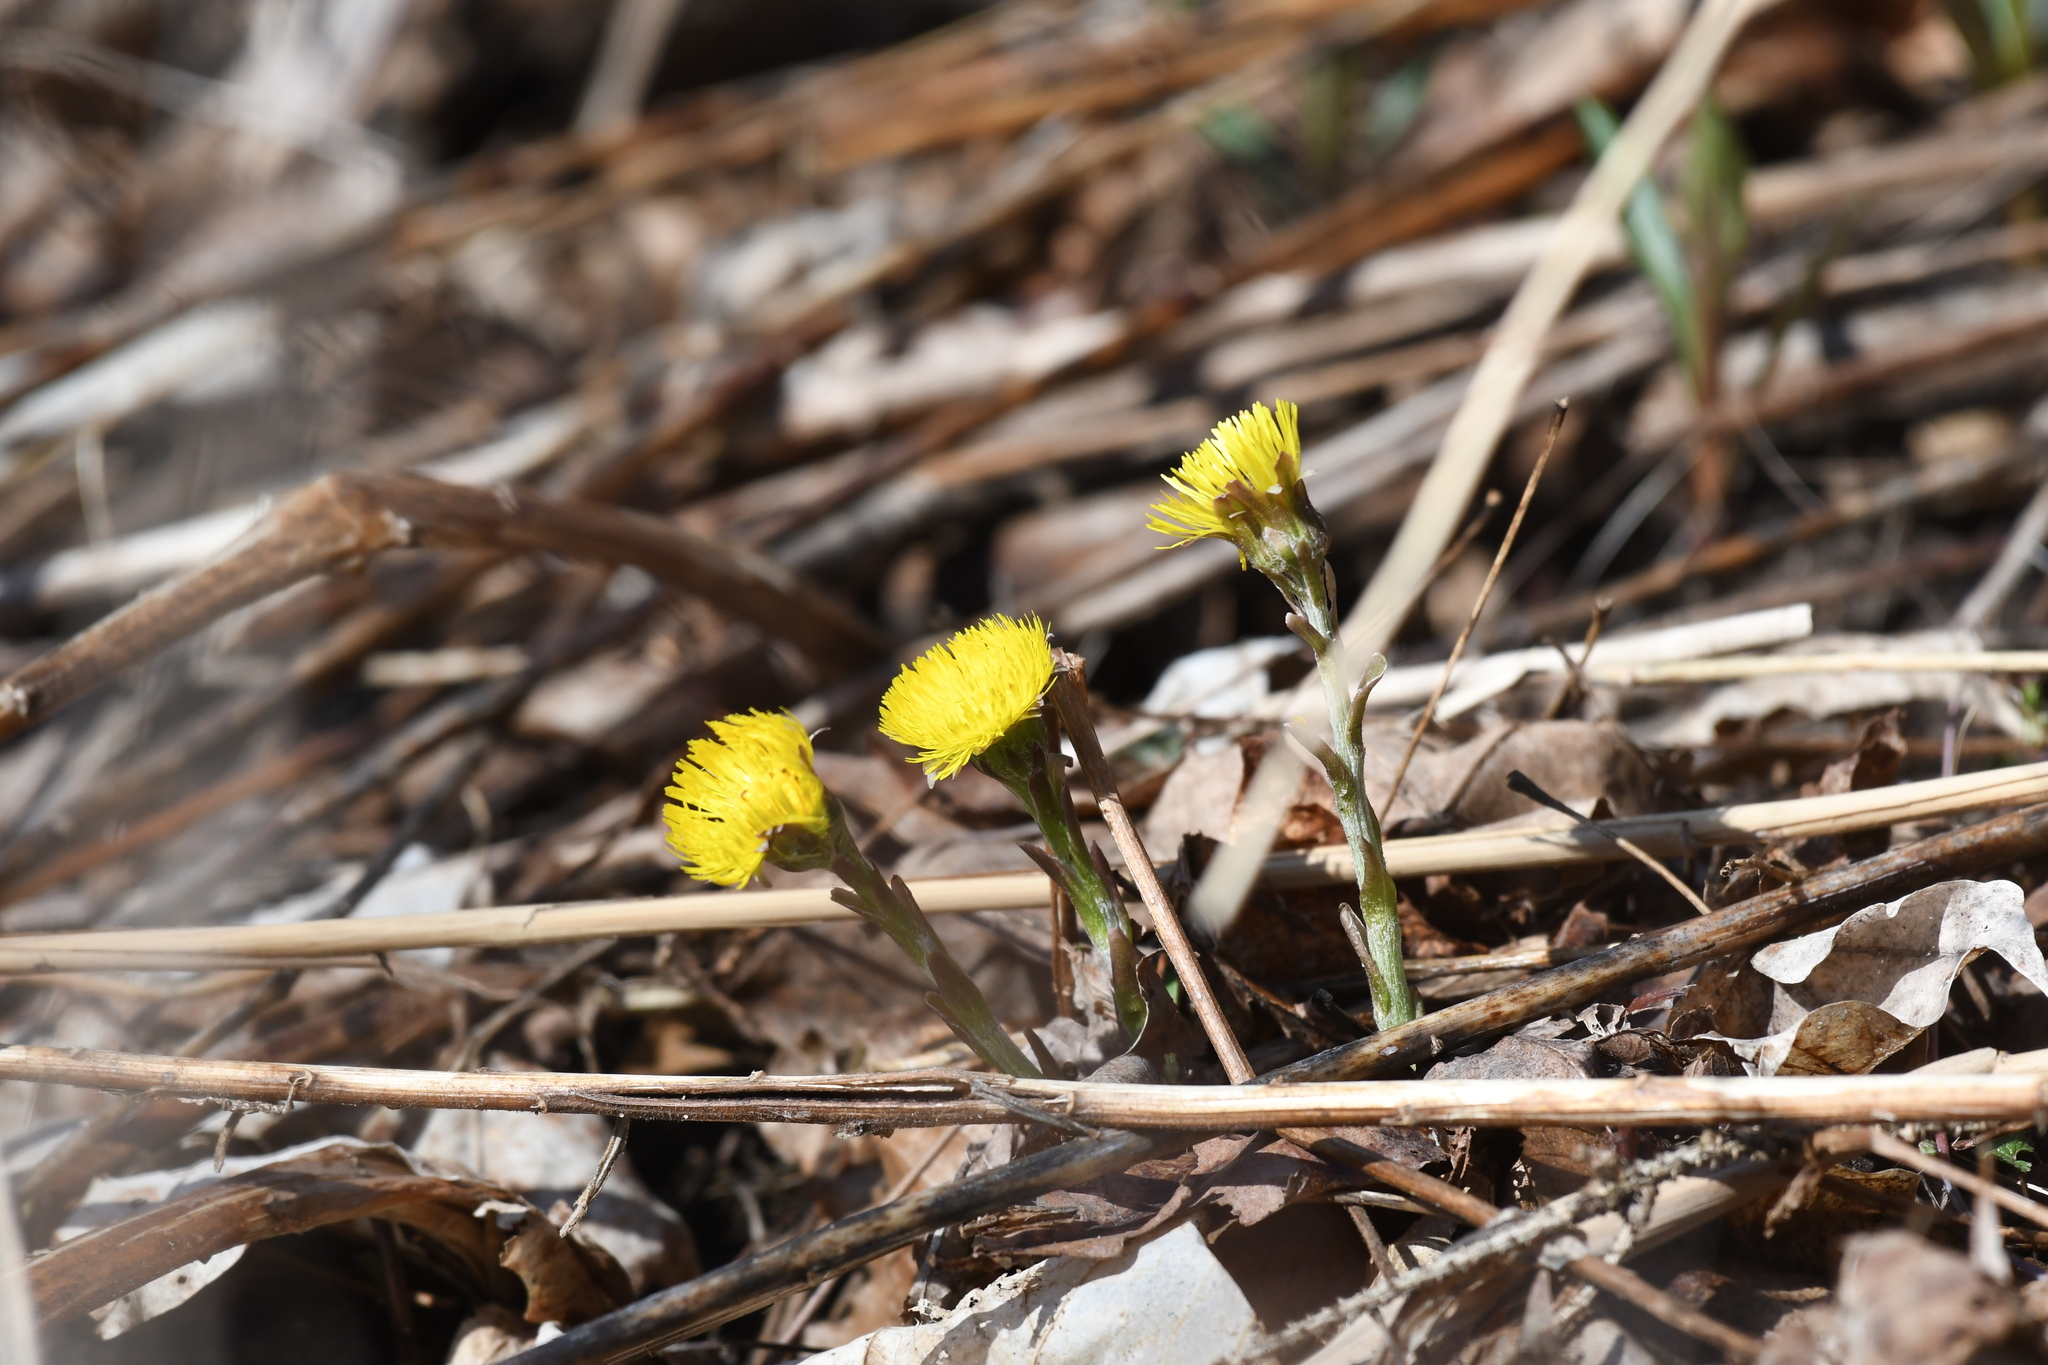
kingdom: Plantae
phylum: Tracheophyta
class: Magnoliopsida
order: Asterales
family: Asteraceae
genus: Tussilago
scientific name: Tussilago farfara
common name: Coltsfoot
